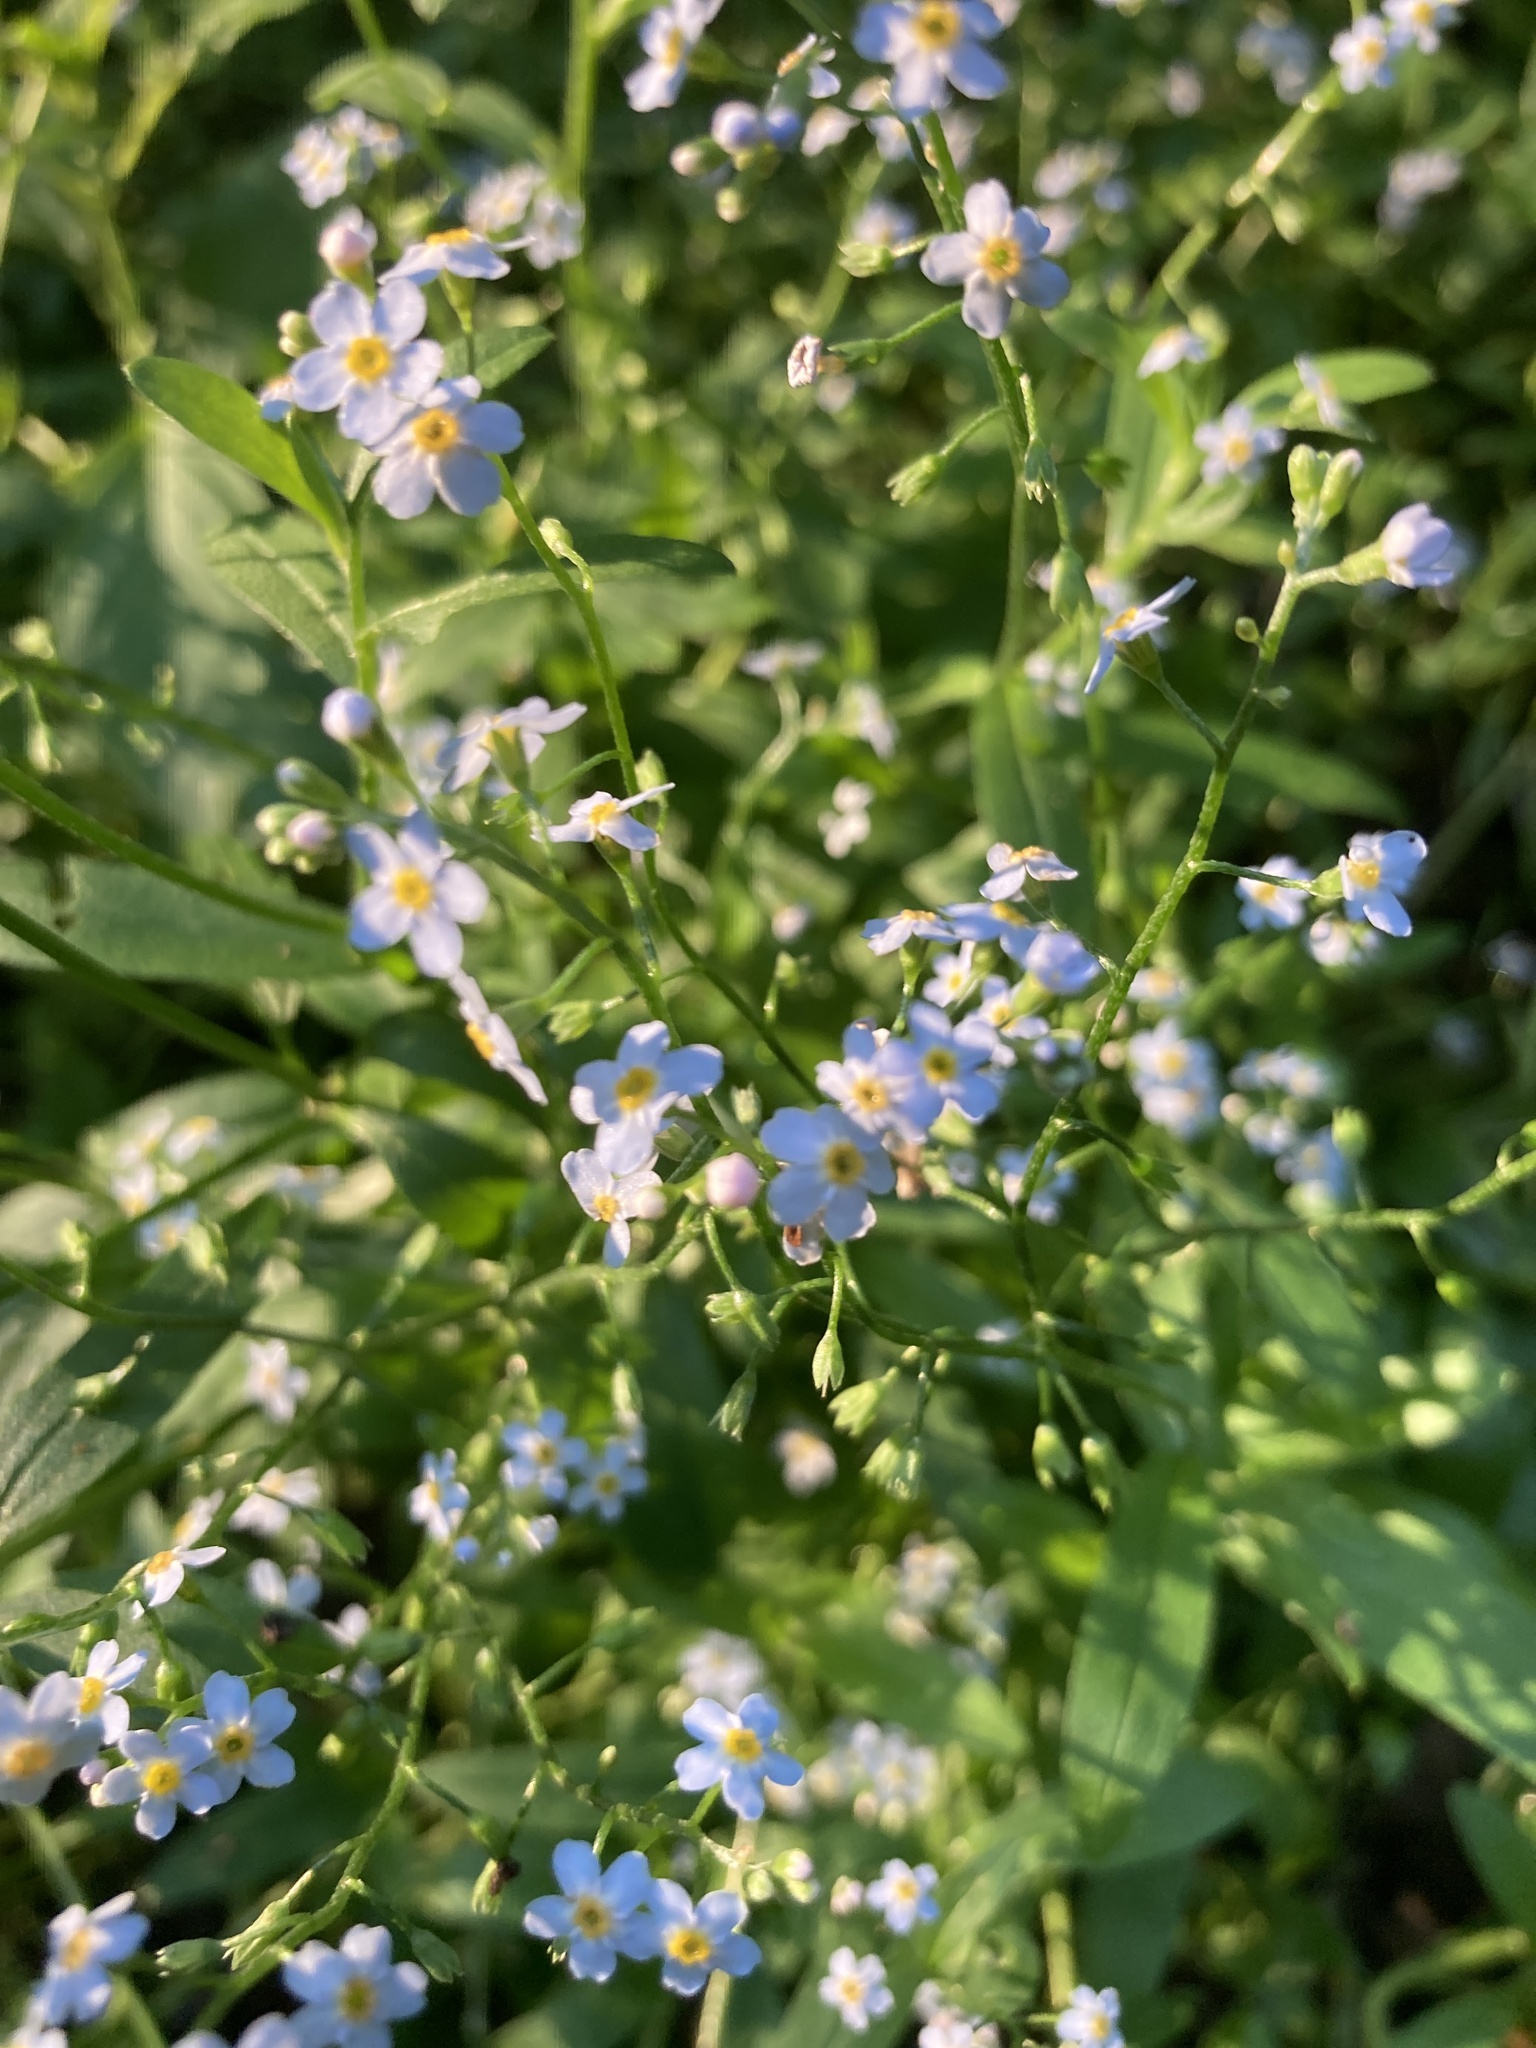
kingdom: Plantae
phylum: Tracheophyta
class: Magnoliopsida
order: Boraginales
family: Boraginaceae
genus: Myosotis
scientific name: Myosotis scorpioides
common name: Water forget-me-not
